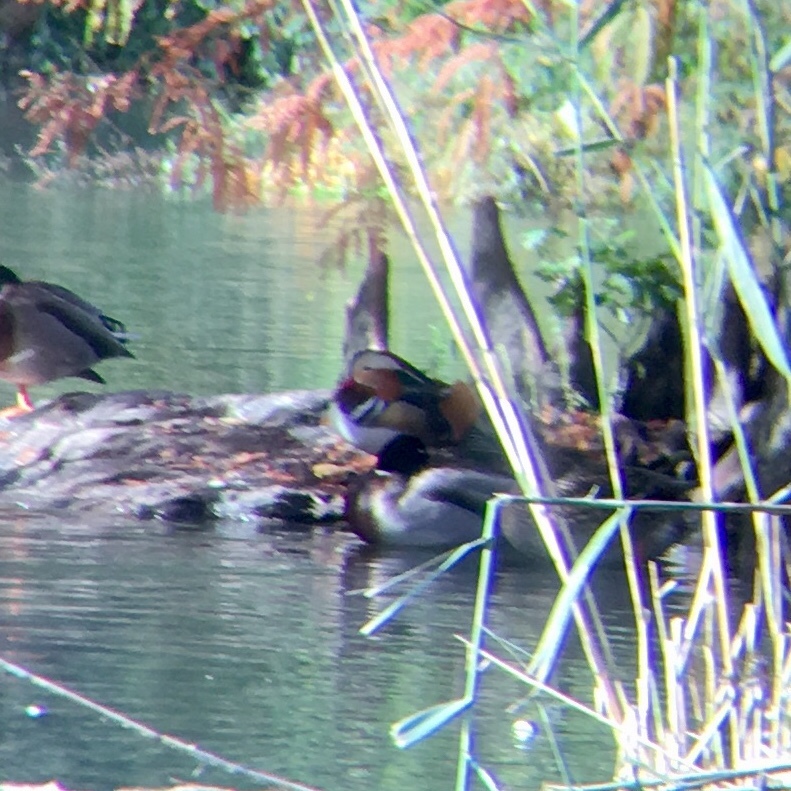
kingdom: Animalia
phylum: Chordata
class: Aves
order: Anseriformes
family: Anatidae
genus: Aix
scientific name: Aix galericulata
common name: Mandarin duck
